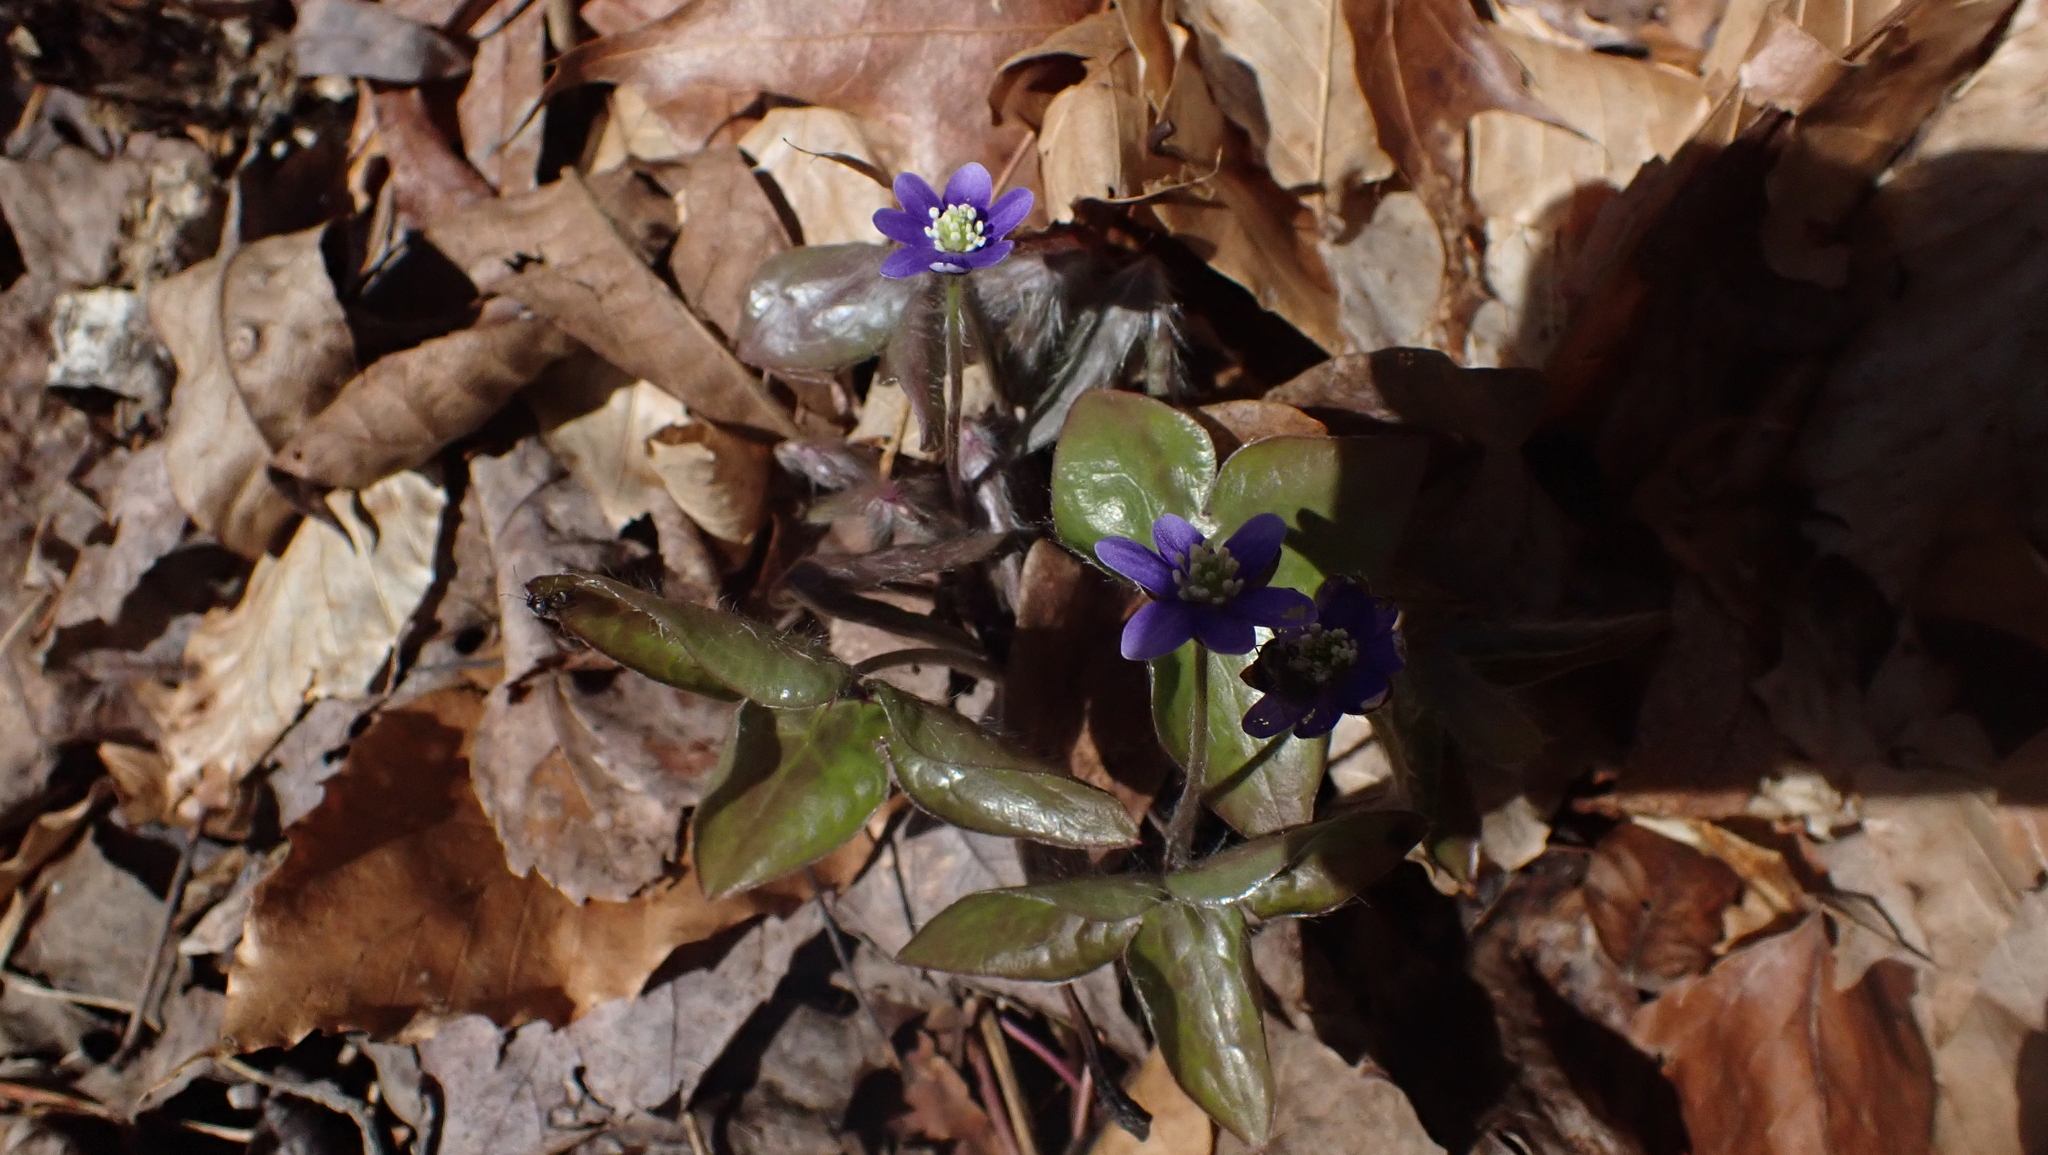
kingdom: Plantae
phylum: Tracheophyta
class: Magnoliopsida
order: Ranunculales
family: Ranunculaceae
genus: Hepatica
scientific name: Hepatica acutiloba
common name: Sharp-lobed hepatica
